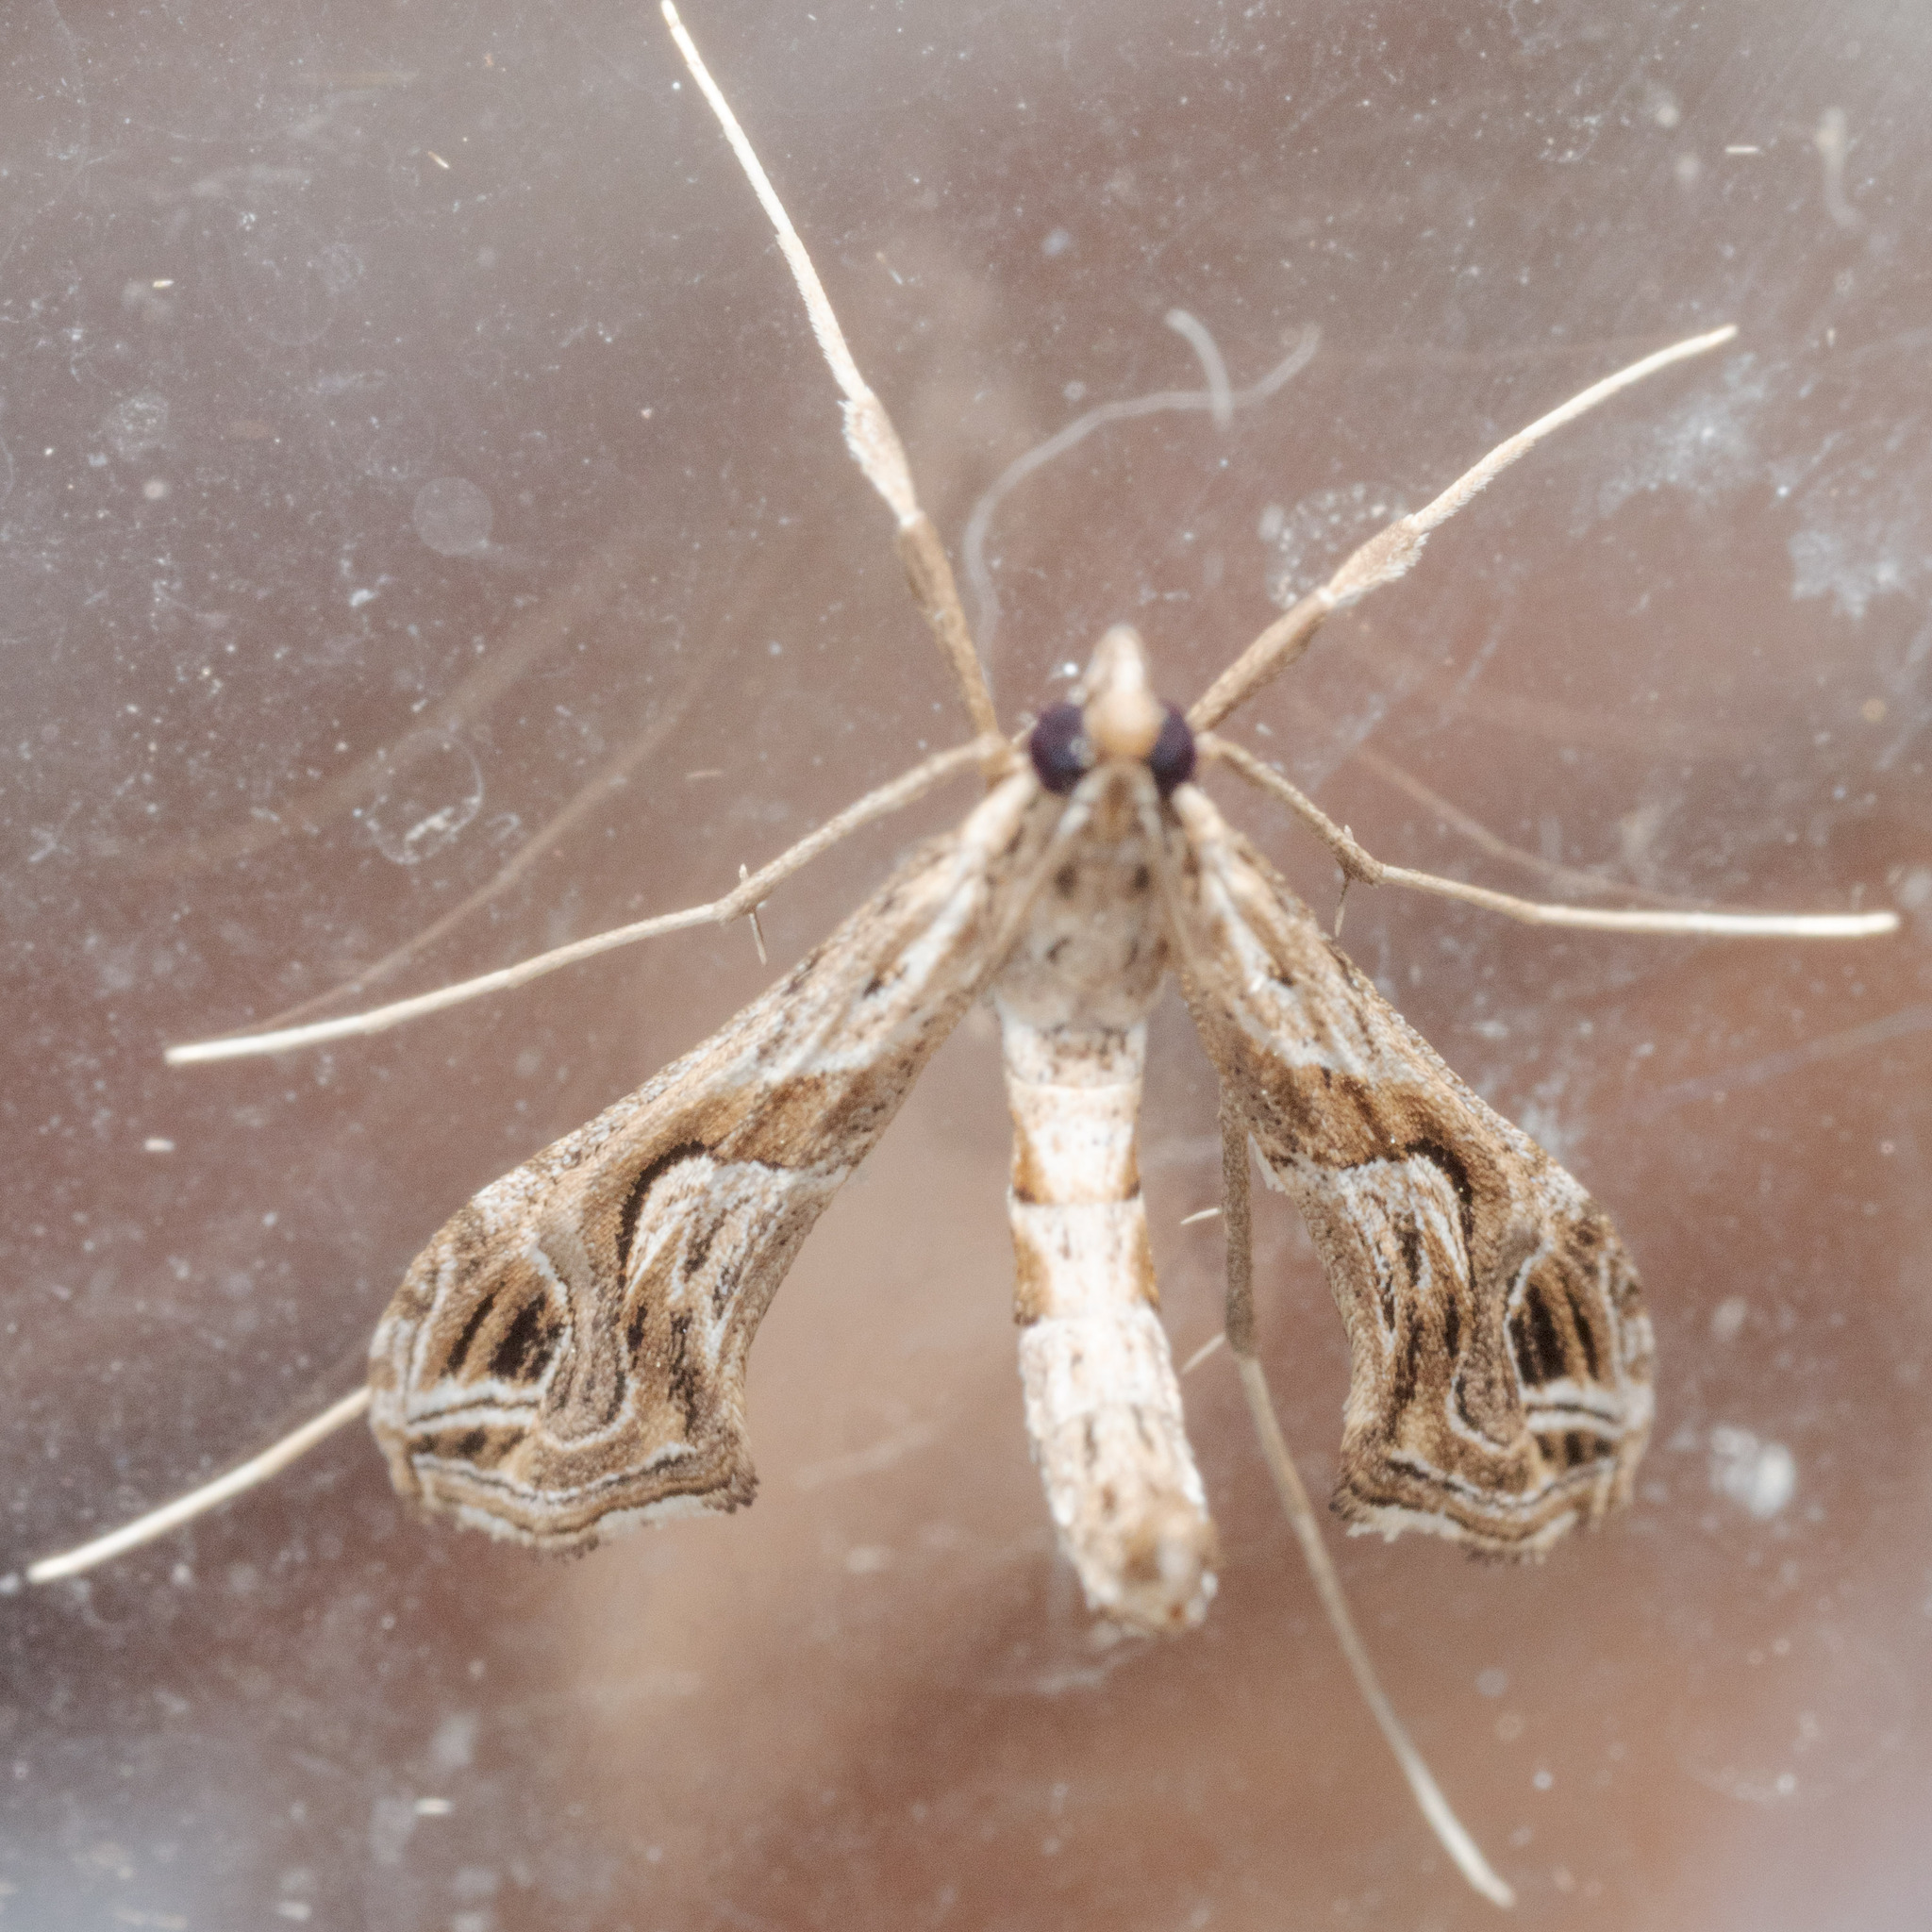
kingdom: Animalia
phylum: Arthropoda
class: Insecta
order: Lepidoptera
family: Crambidae
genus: Lineodes
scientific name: Lineodes integra
